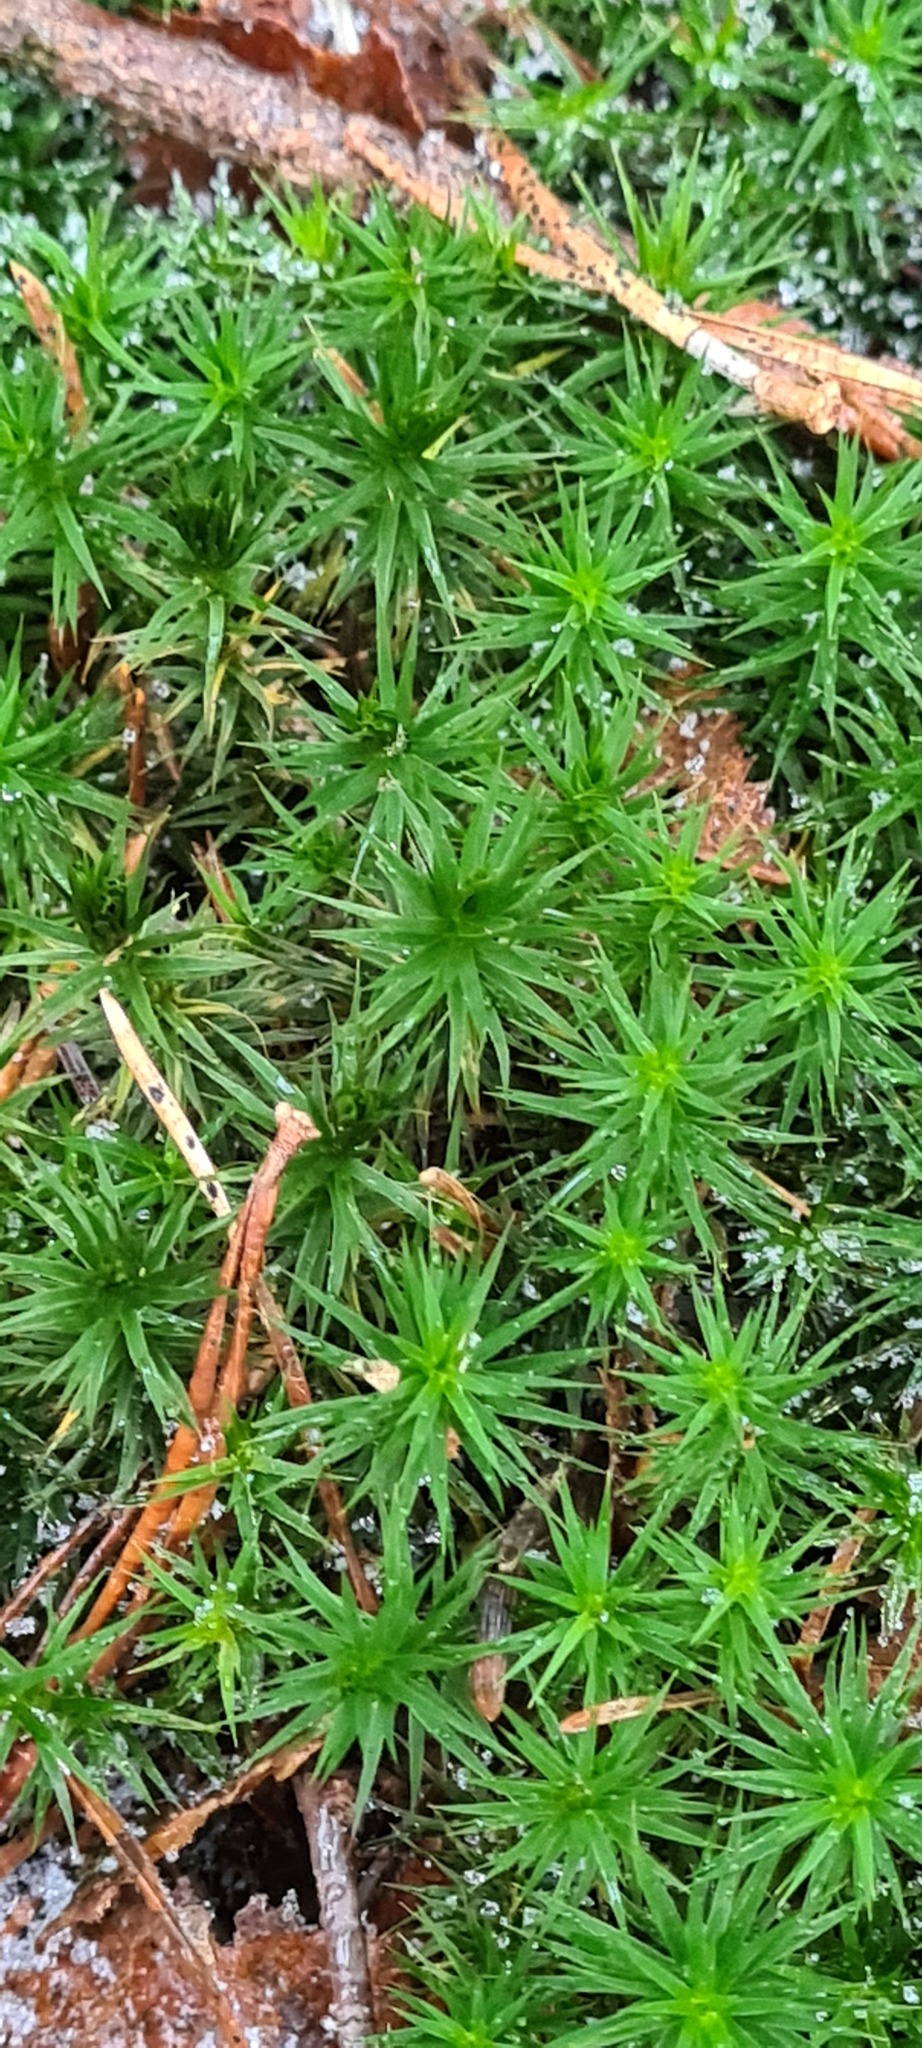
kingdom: Plantae
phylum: Bryophyta
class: Polytrichopsida
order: Polytrichales
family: Polytrichaceae
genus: Polytrichum
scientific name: Polytrichum formosum
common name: Bank haircap moss
